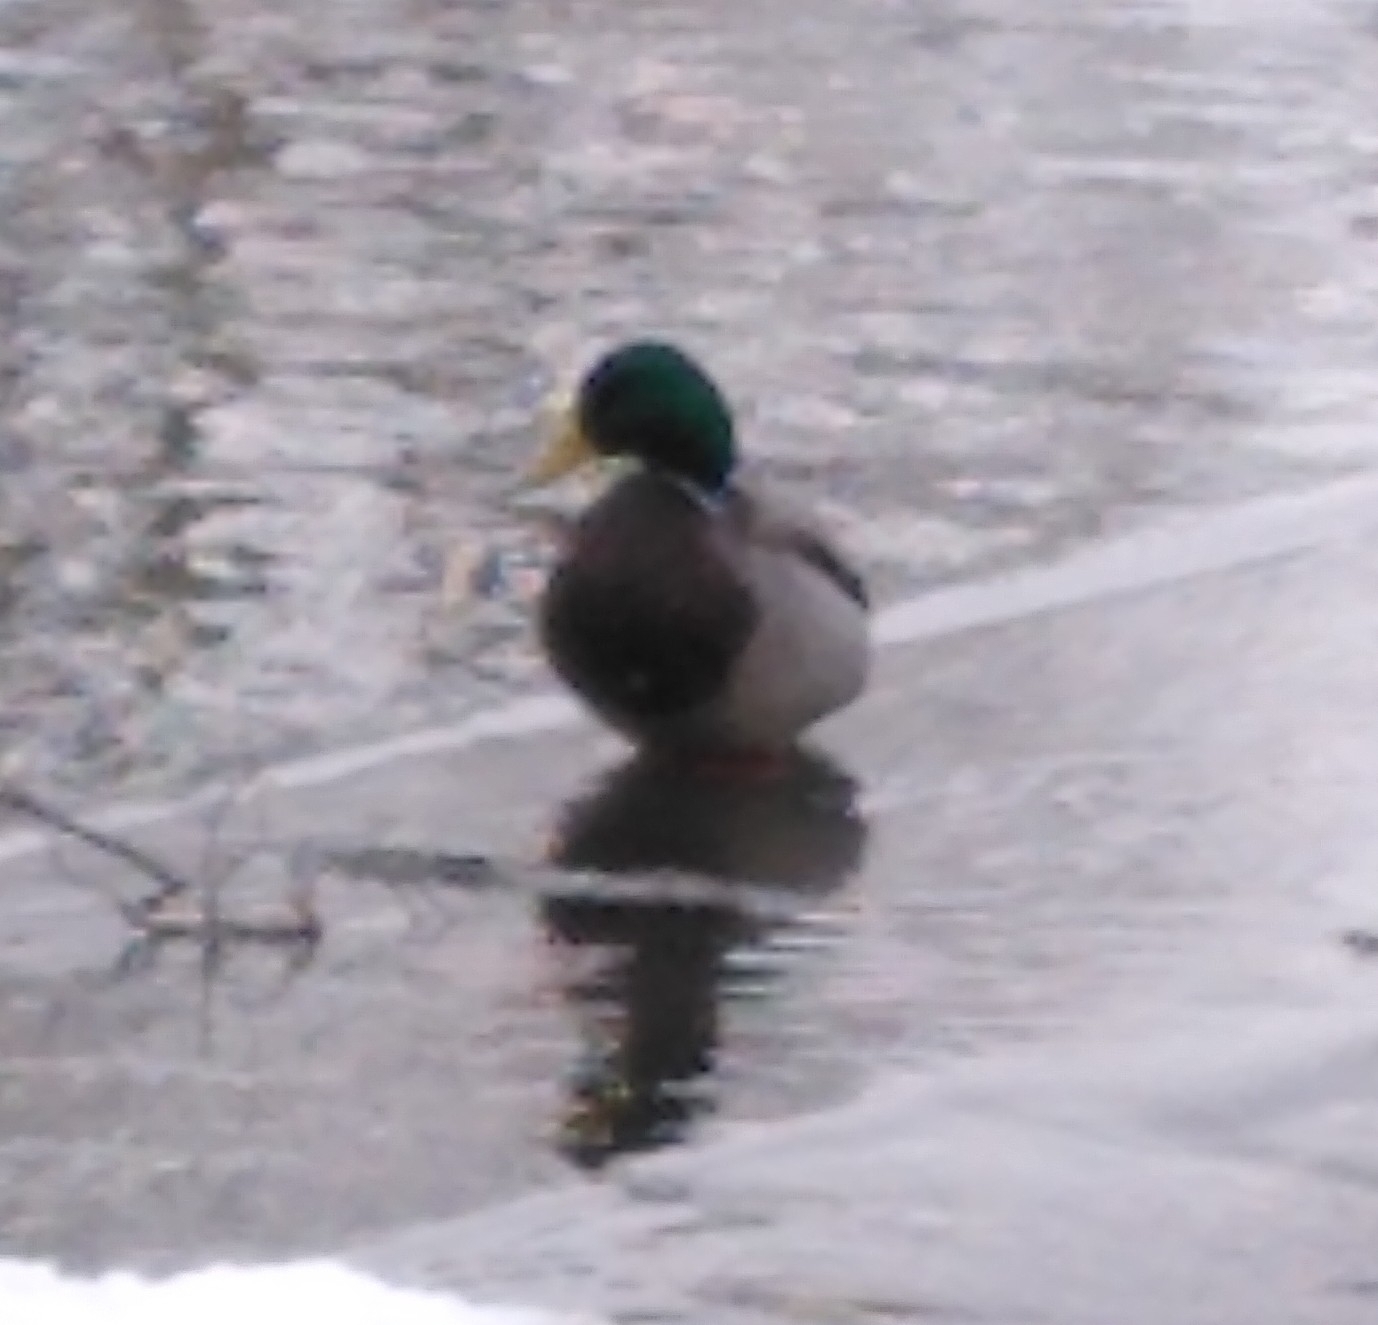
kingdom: Animalia
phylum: Chordata
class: Aves
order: Anseriformes
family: Anatidae
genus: Anas
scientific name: Anas platyrhynchos
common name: Mallard
